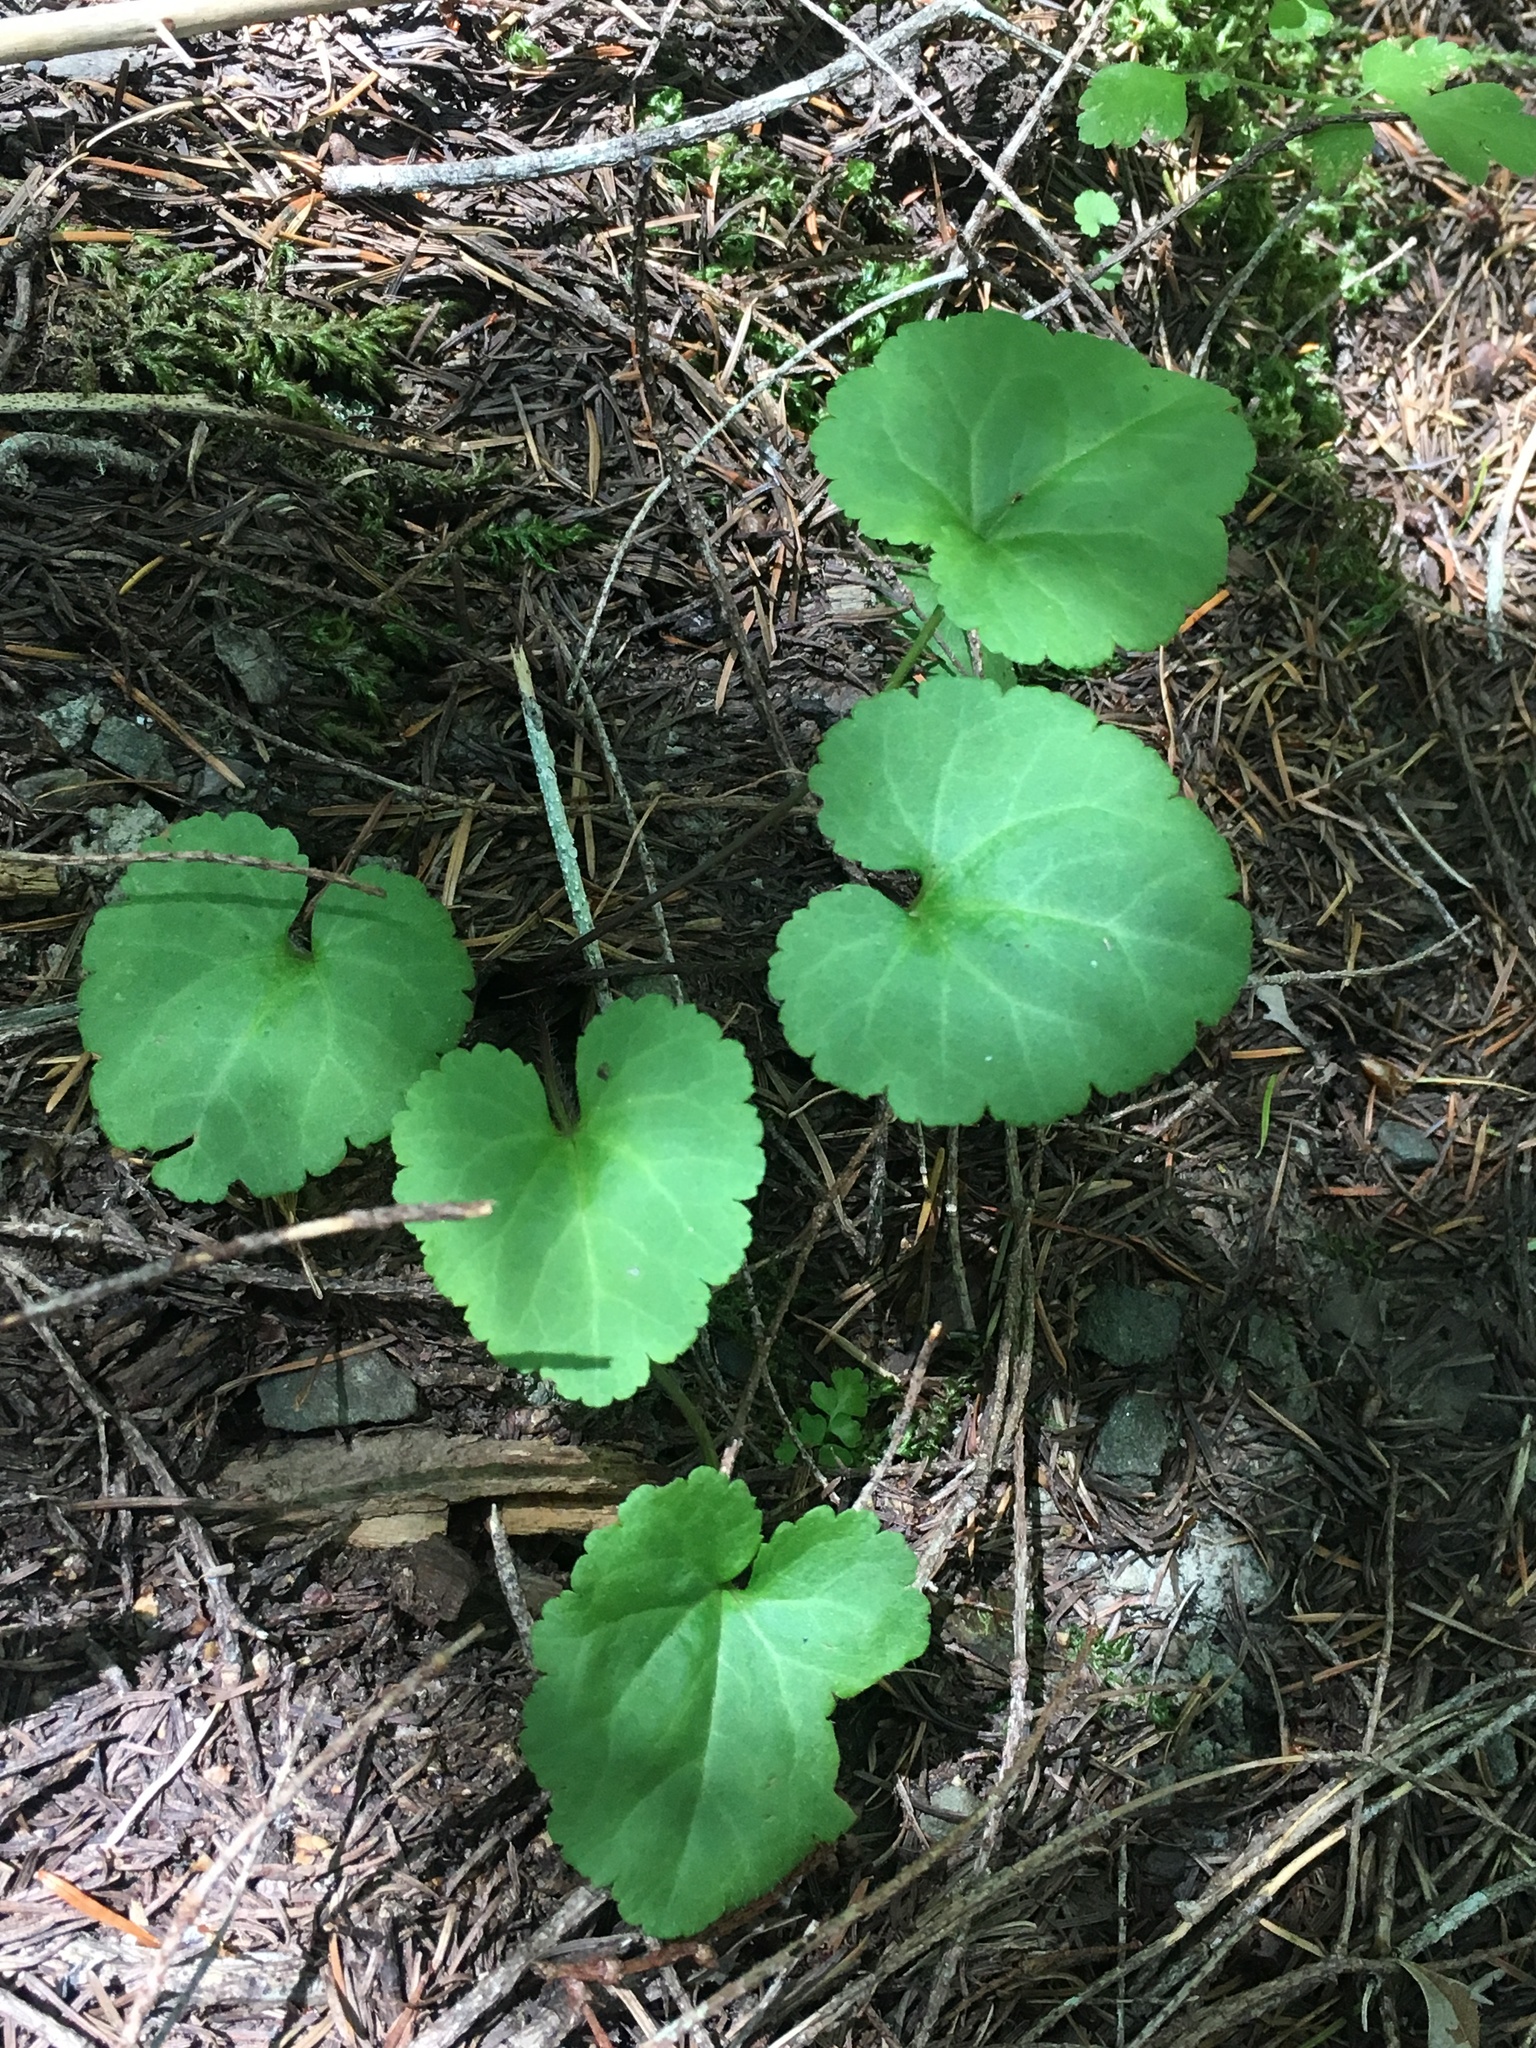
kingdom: Plantae
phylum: Tracheophyta
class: Magnoliopsida
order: Lamiales
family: Plantaginaceae
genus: Synthyris
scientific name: Synthyris reniformis
